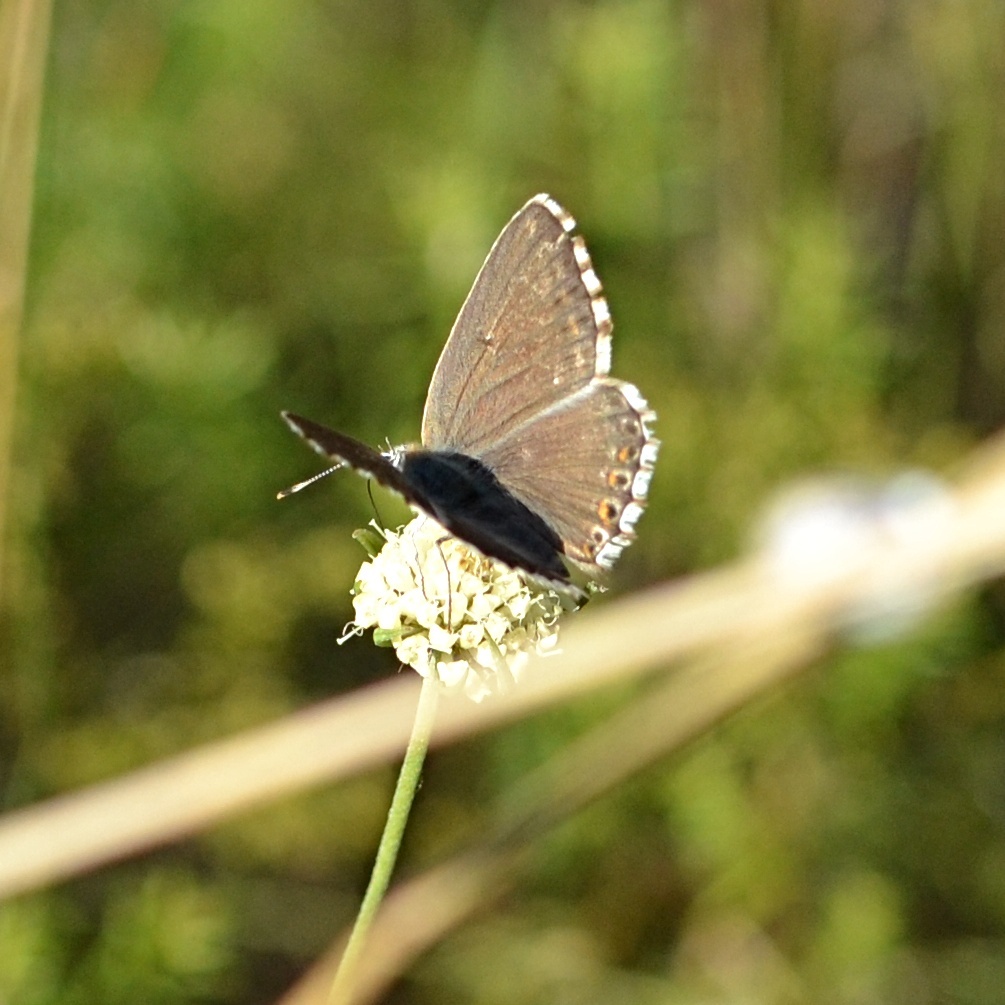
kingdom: Animalia
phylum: Arthropoda
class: Insecta
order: Lepidoptera
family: Lycaenidae
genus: Lysandra
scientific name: Lysandra coridon
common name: Chalkhill blue
